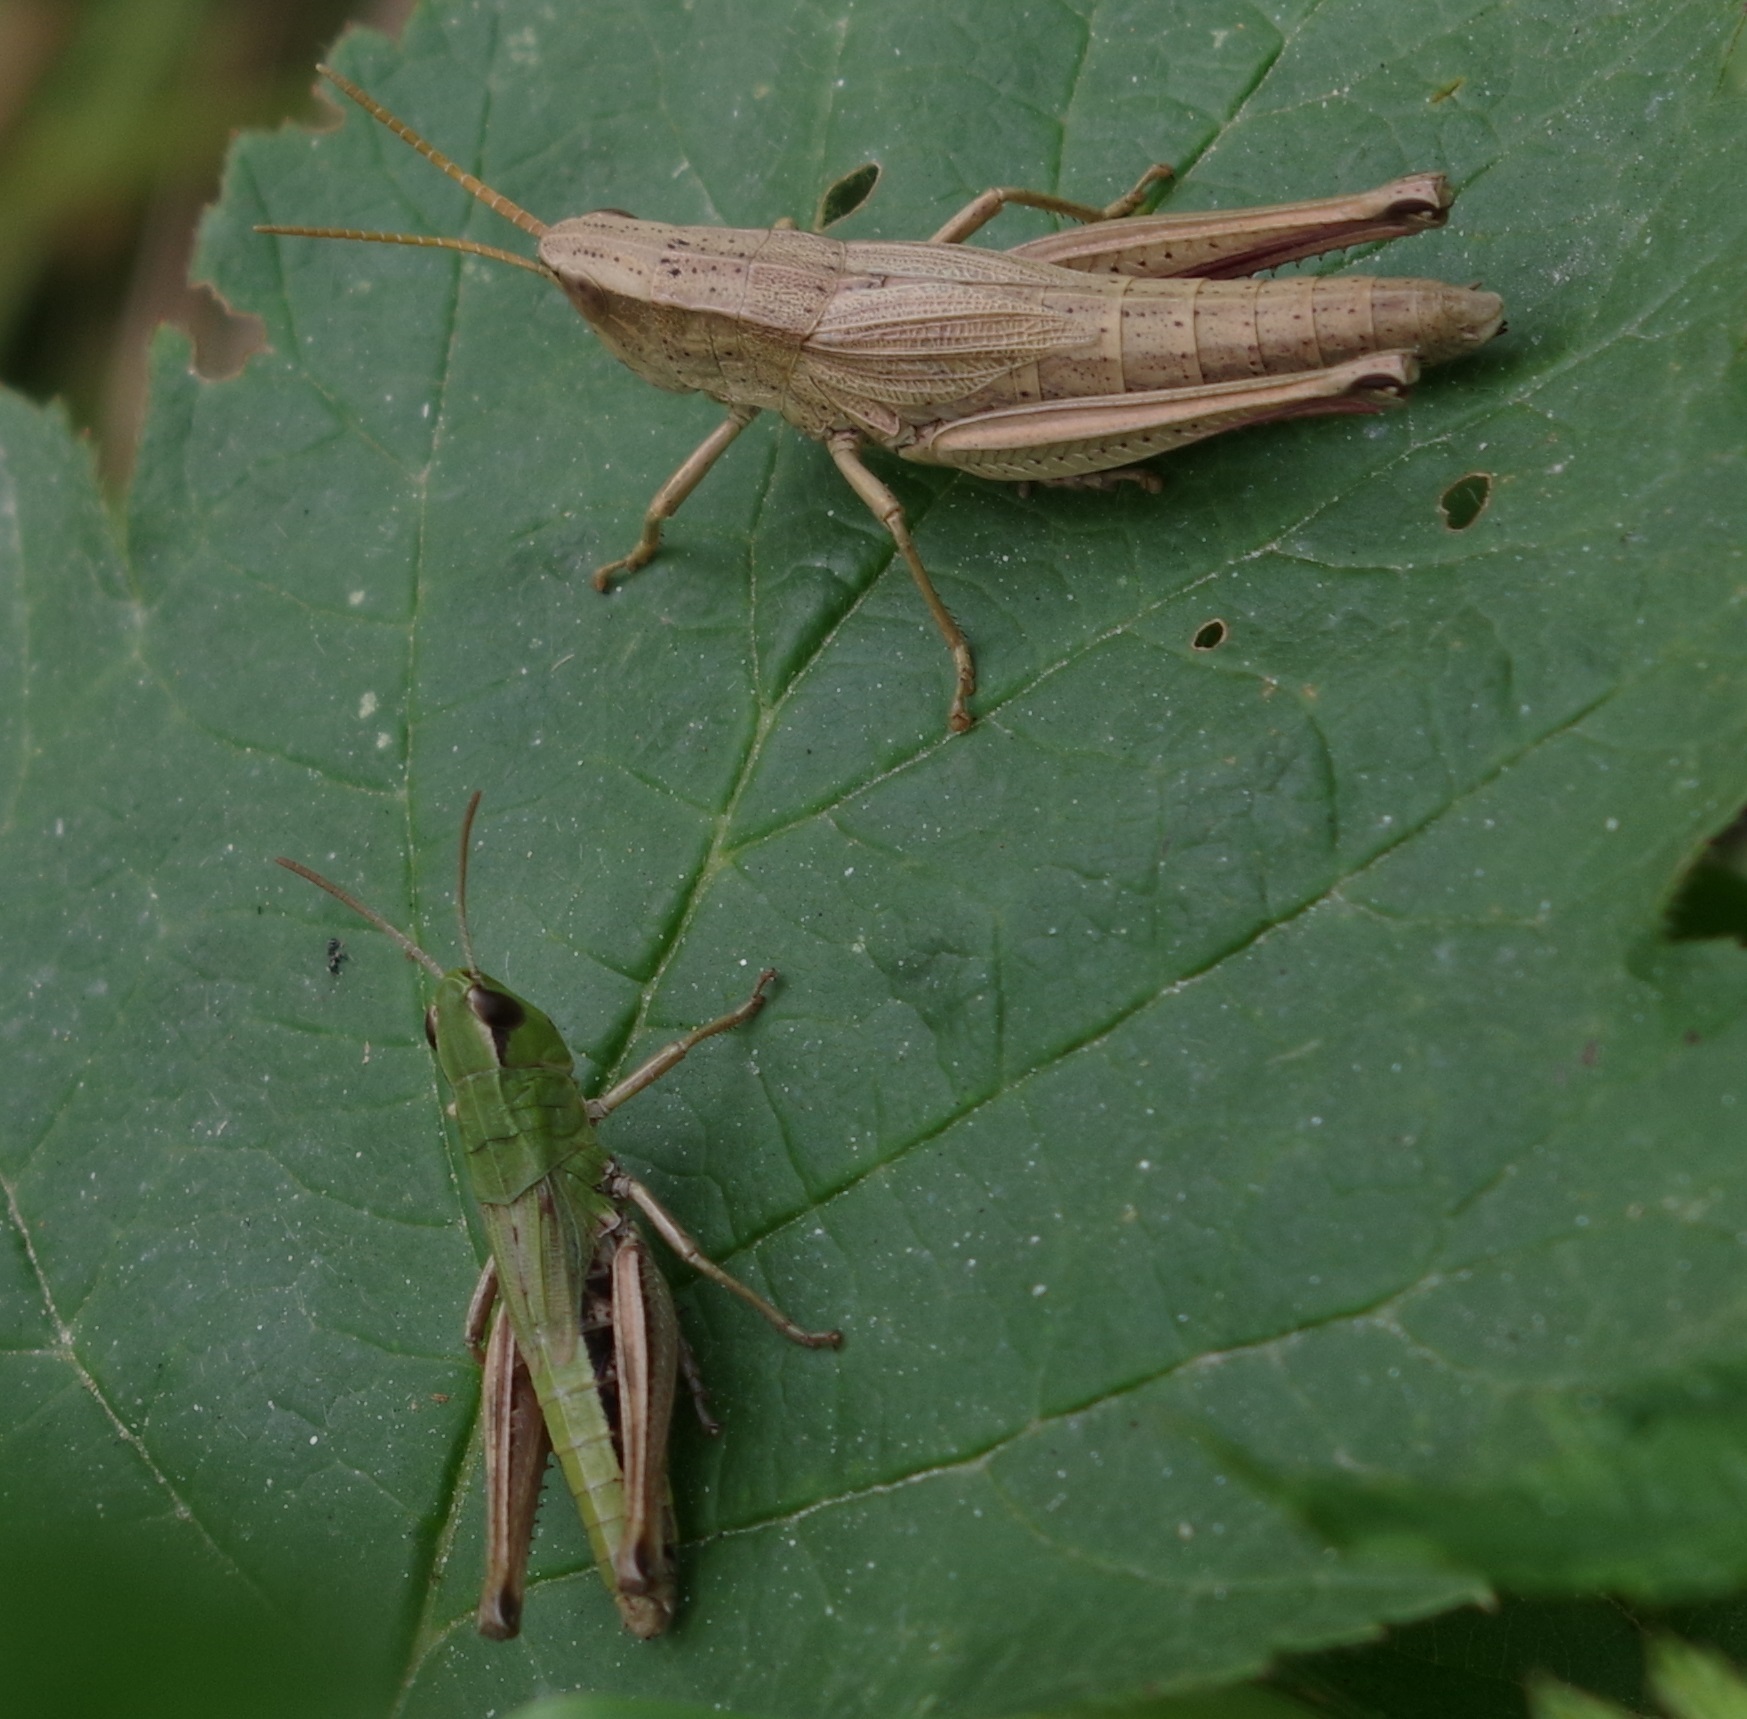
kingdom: Animalia
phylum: Arthropoda
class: Insecta
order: Orthoptera
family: Acrididae
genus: Chrysochraon
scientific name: Chrysochraon dispar
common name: Large gold grasshopper
